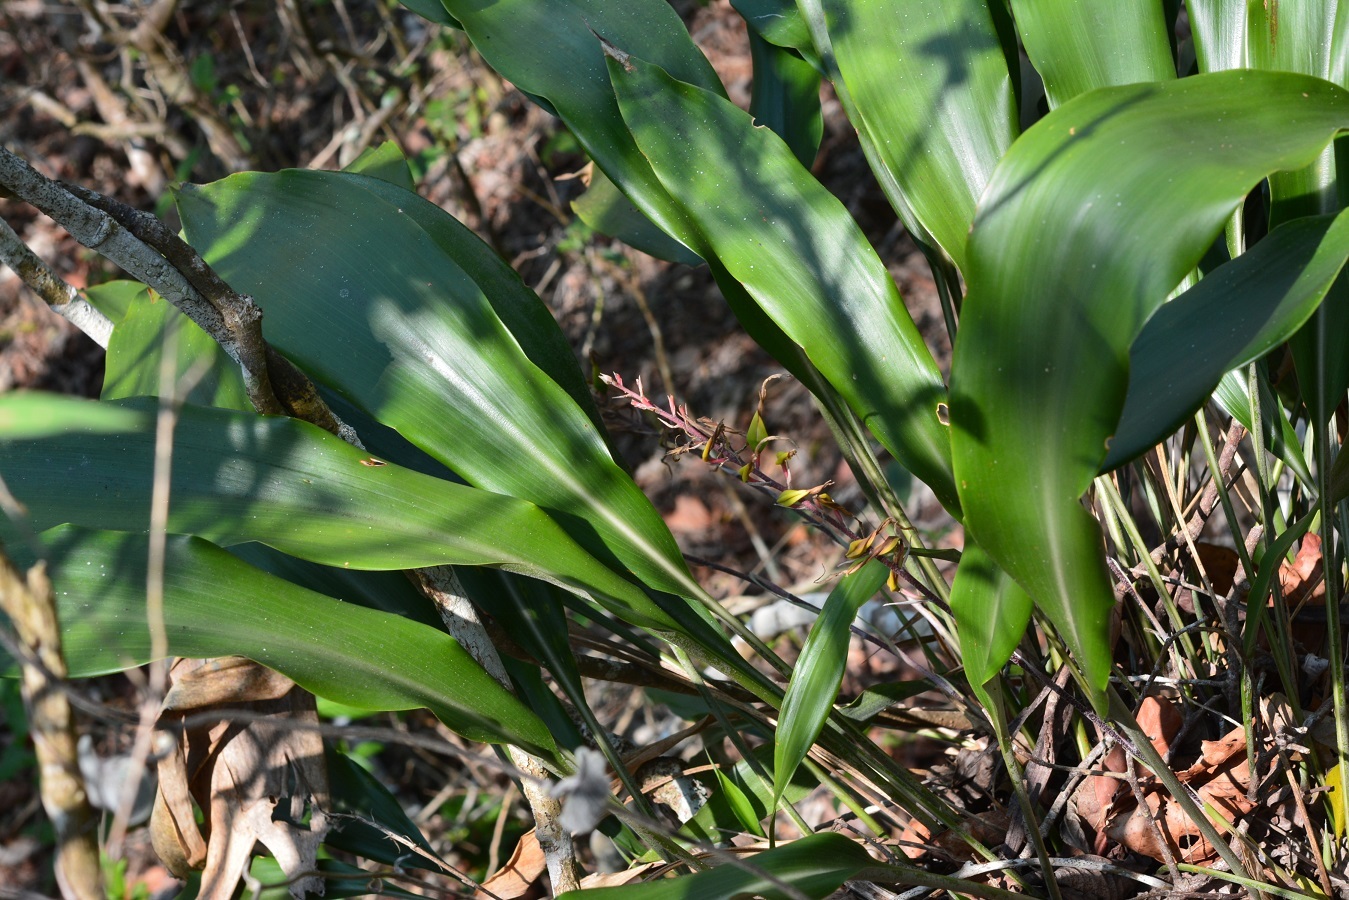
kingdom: Plantae
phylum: Tracheophyta
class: Liliopsida
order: Poales
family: Bromeliaceae
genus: Pitcairnia
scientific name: Pitcairnia chiapensis
